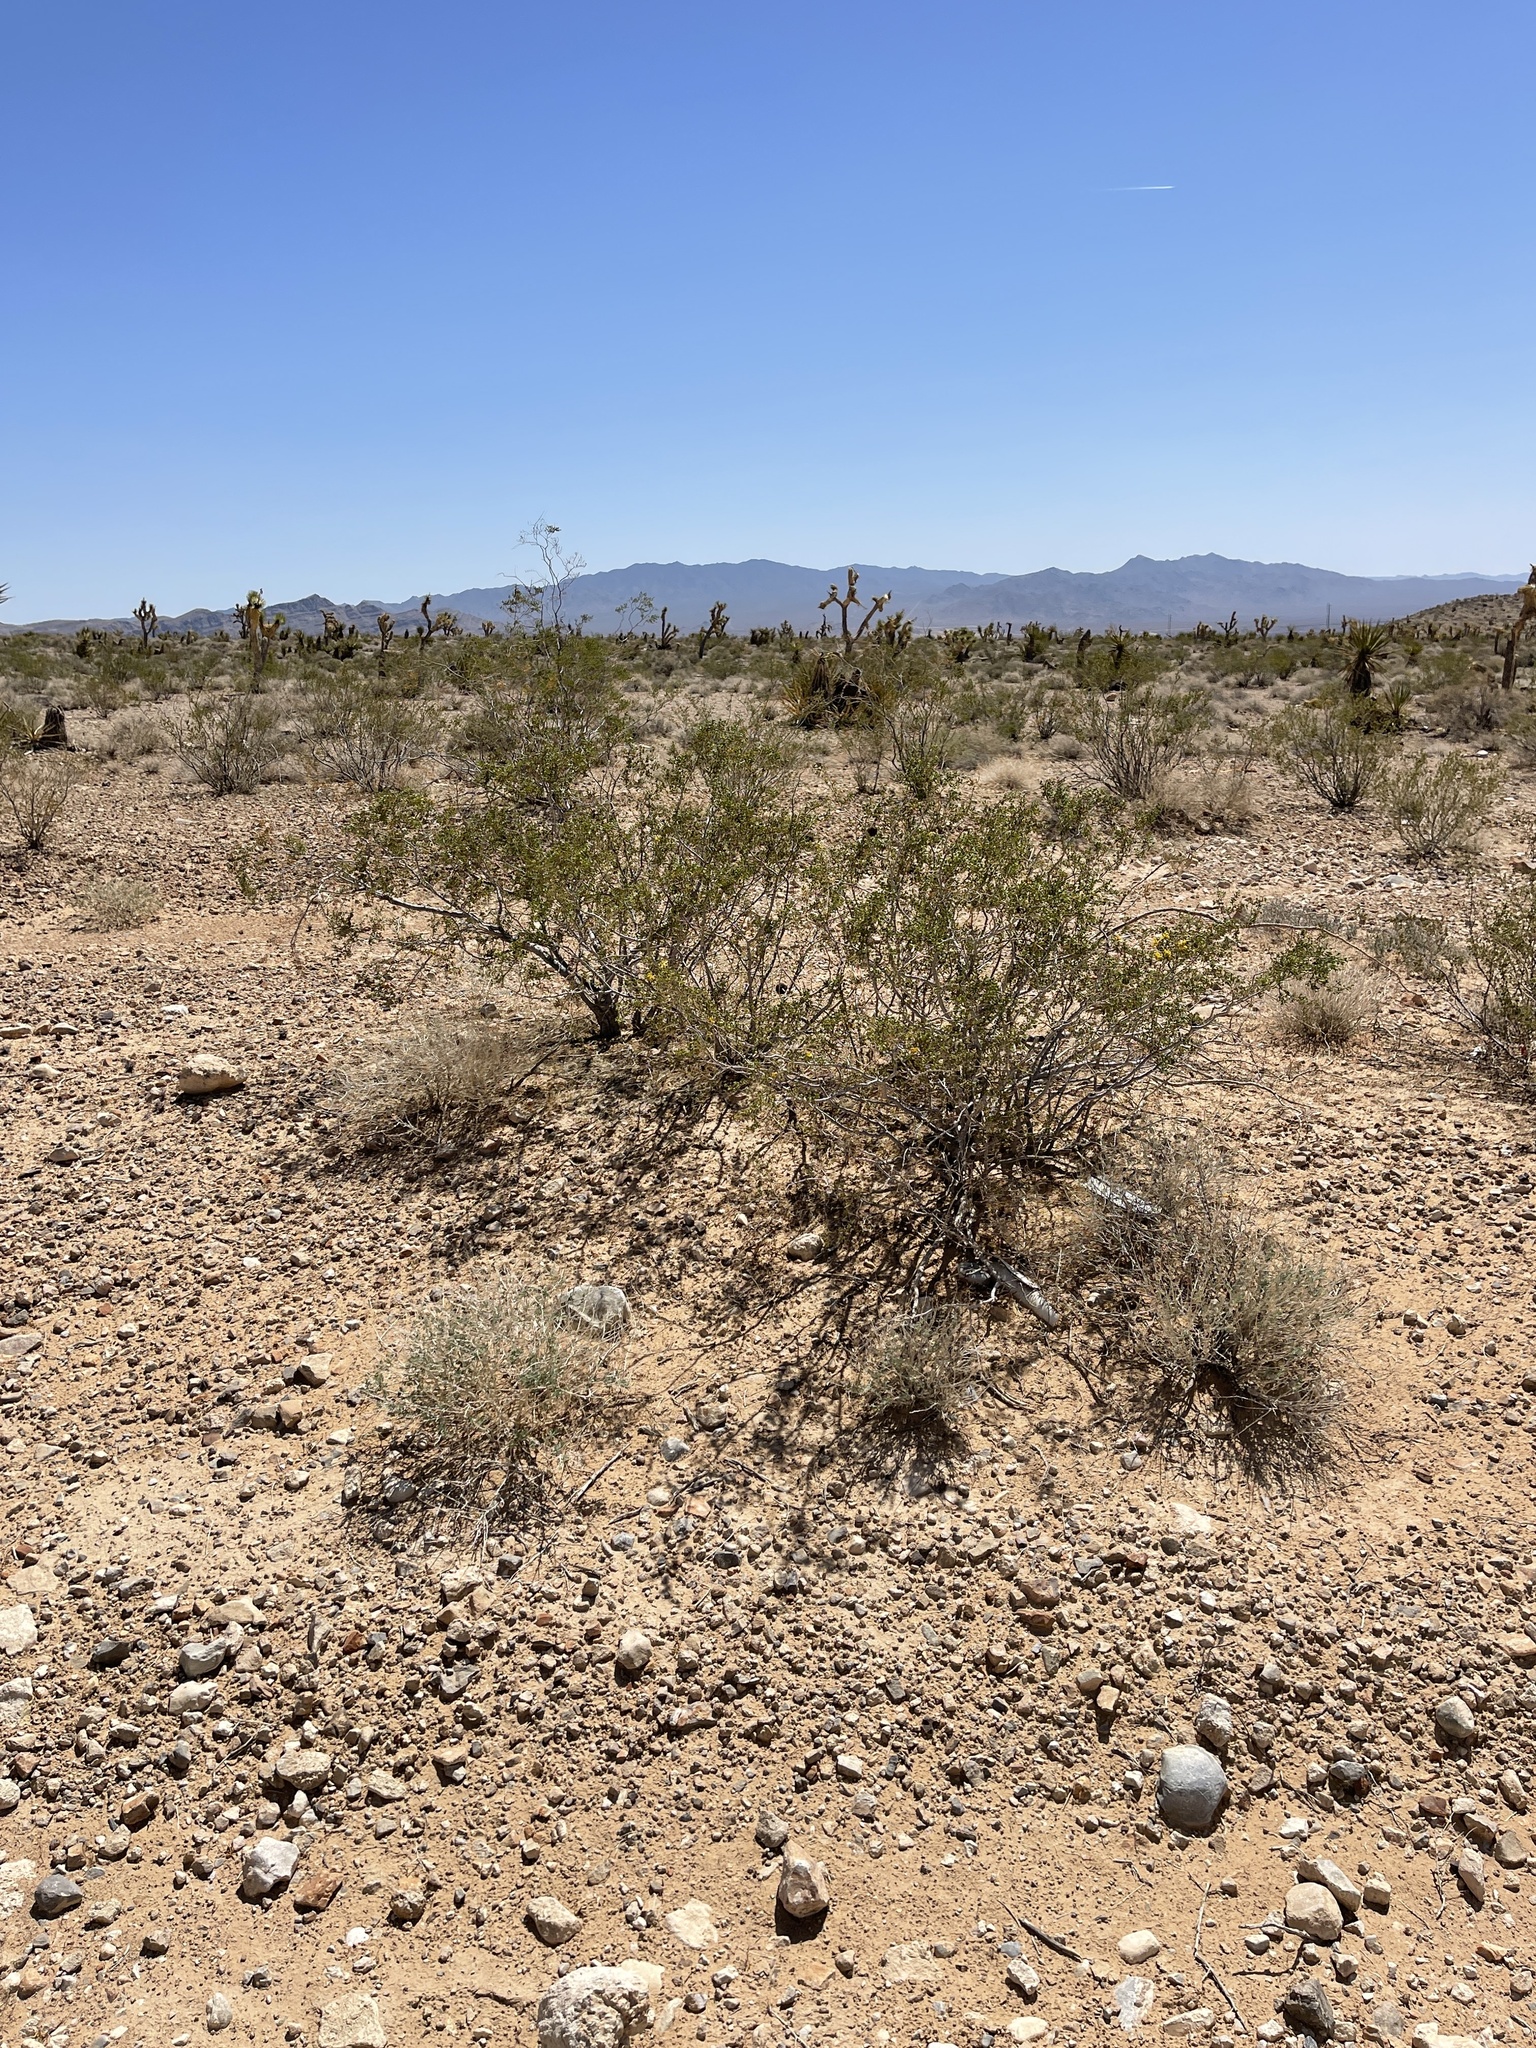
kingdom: Plantae
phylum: Tracheophyta
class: Magnoliopsida
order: Zygophyllales
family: Zygophyllaceae
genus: Larrea
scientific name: Larrea tridentata
